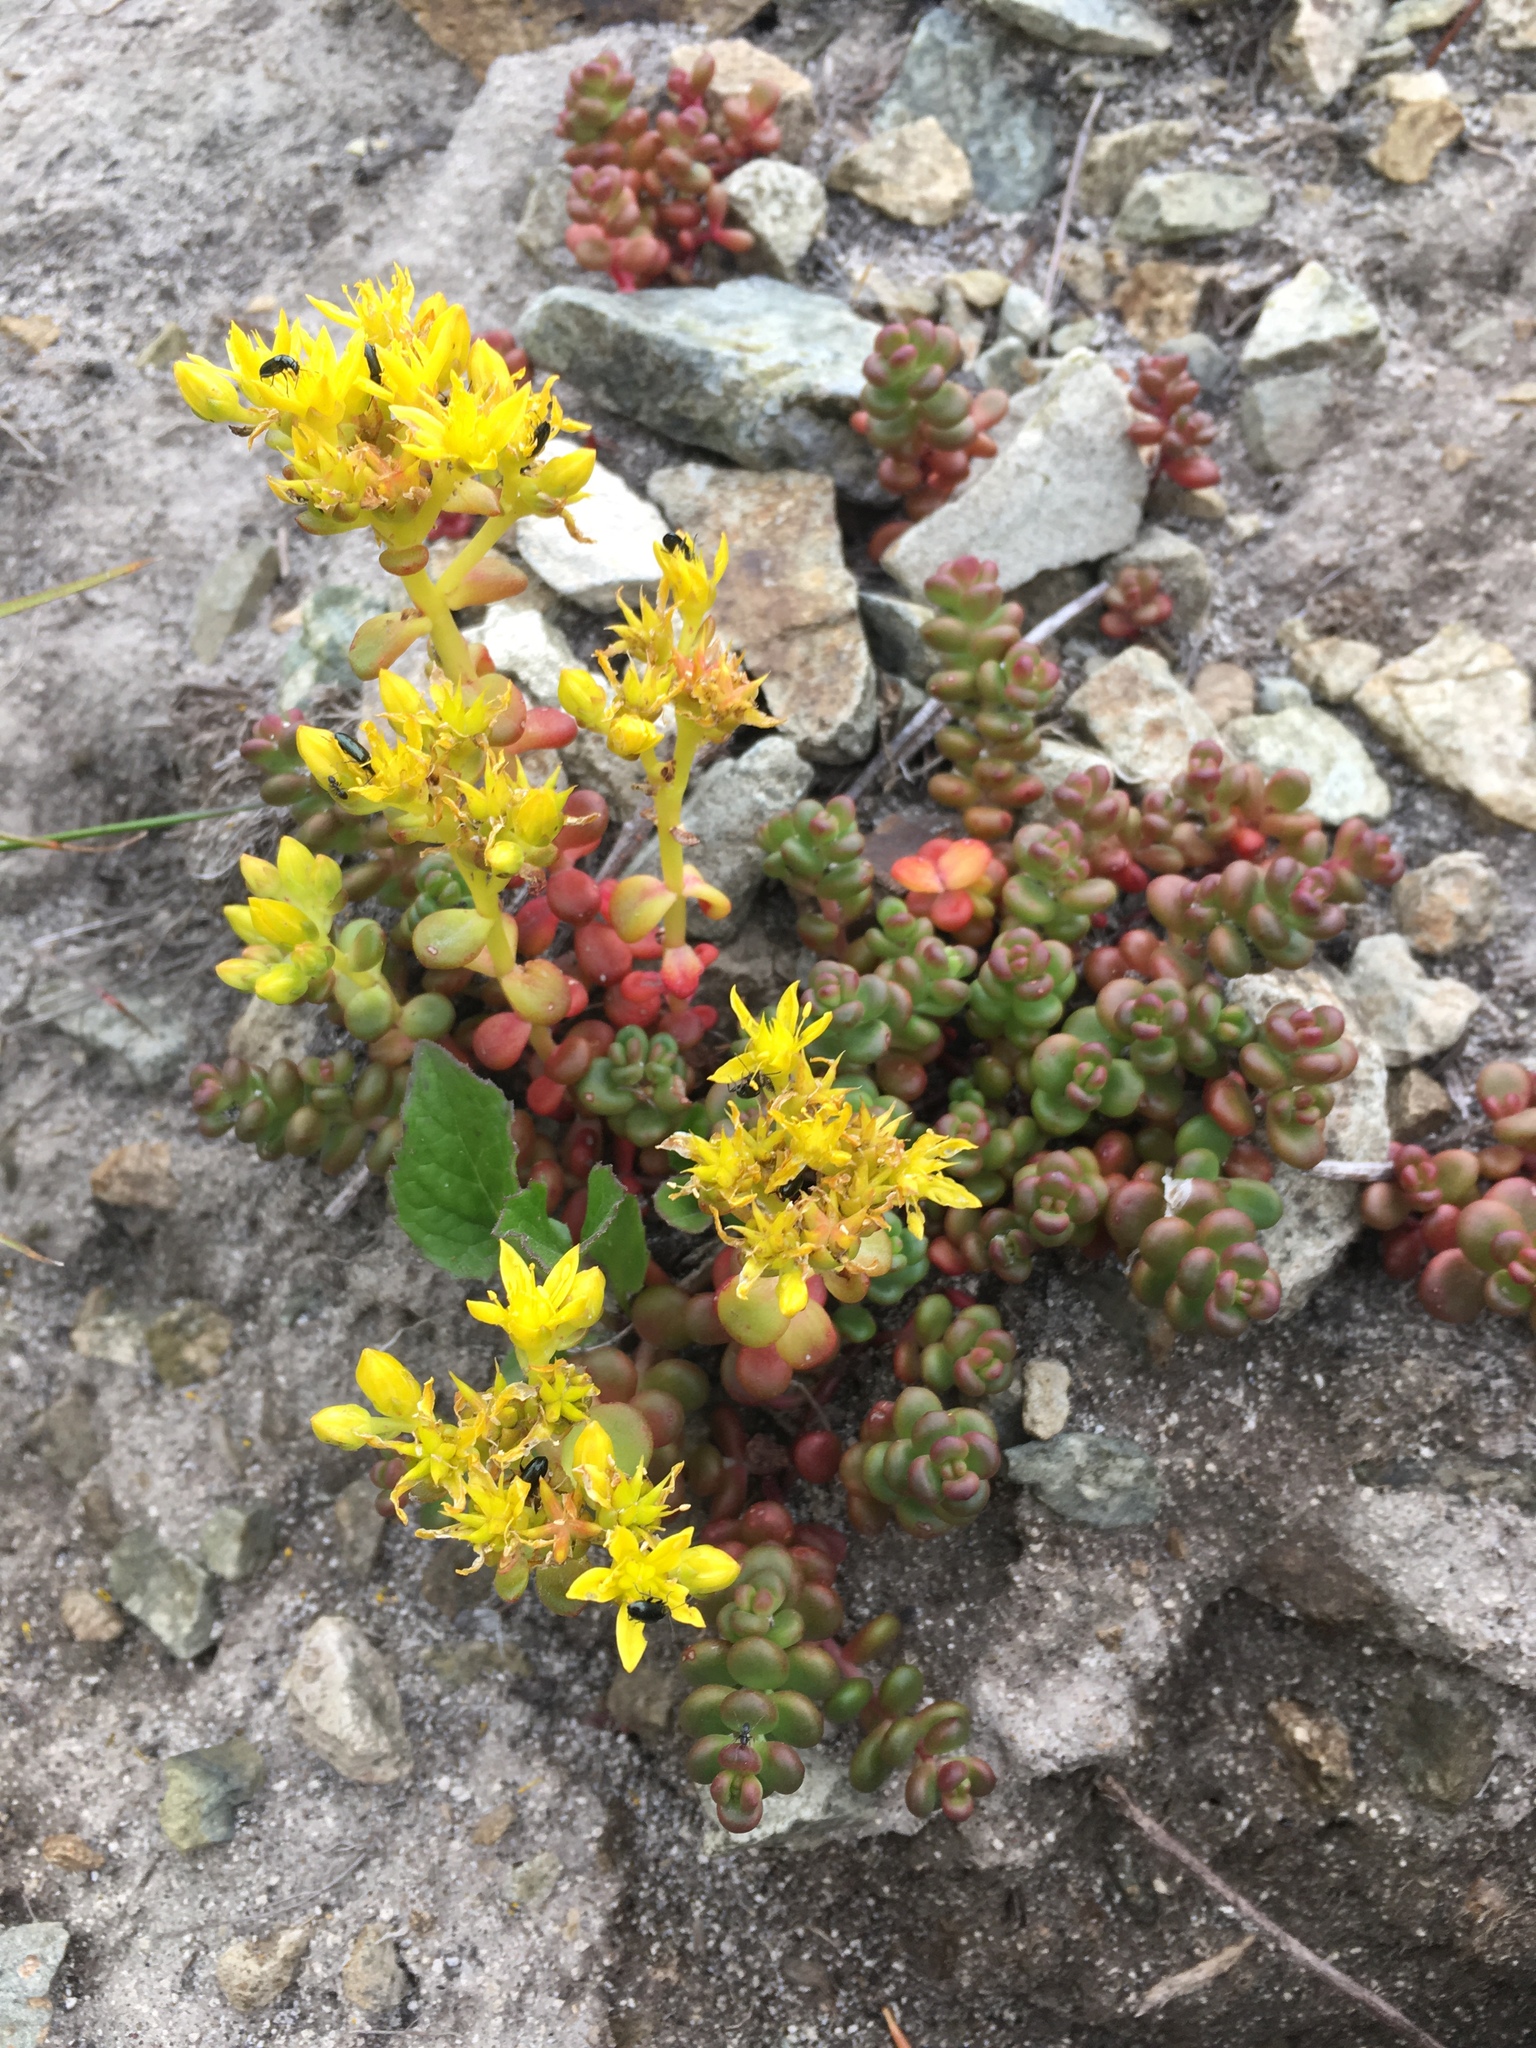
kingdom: Plantae
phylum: Tracheophyta
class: Magnoliopsida
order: Saxifragales
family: Crassulaceae
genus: Sedum
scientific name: Sedum divergens
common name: Cascade stonecrop
